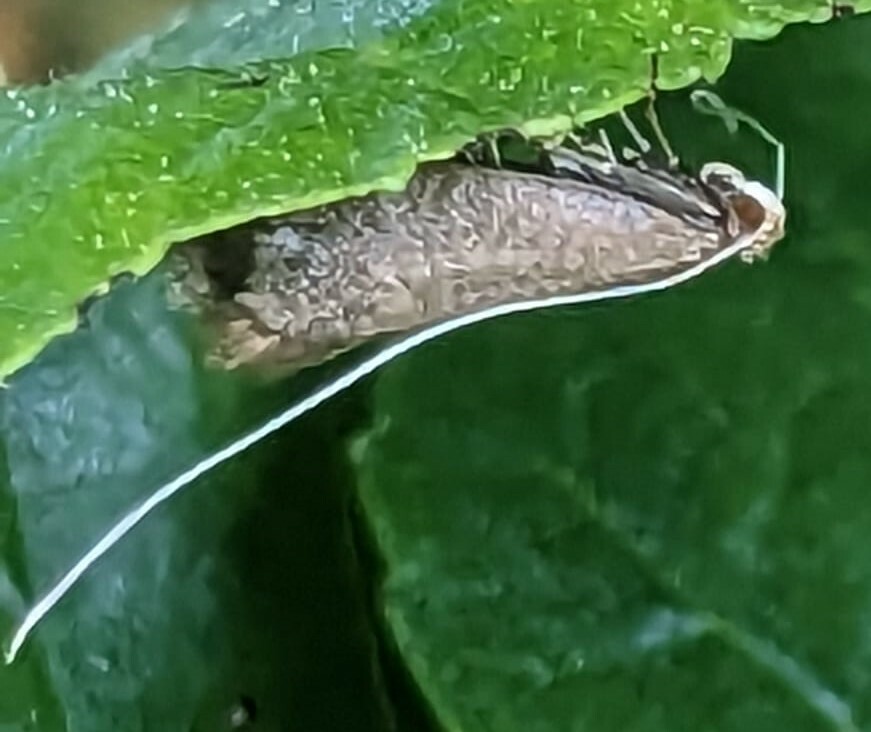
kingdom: Animalia
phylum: Arthropoda
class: Insecta
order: Lepidoptera
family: Adelidae
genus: Nematopogon
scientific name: Nematopogon swammerdamella
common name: Large long-horn
